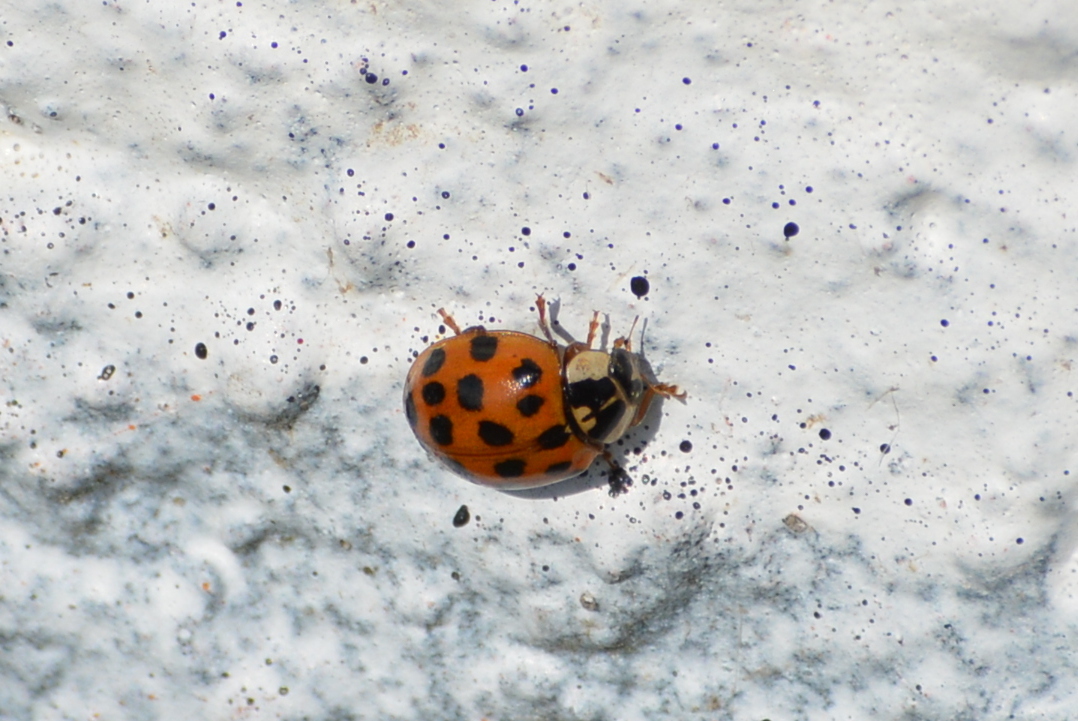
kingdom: Animalia
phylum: Arthropoda
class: Insecta
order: Coleoptera
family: Coccinellidae
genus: Harmonia
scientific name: Harmonia axyridis
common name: Harlequin ladybird
